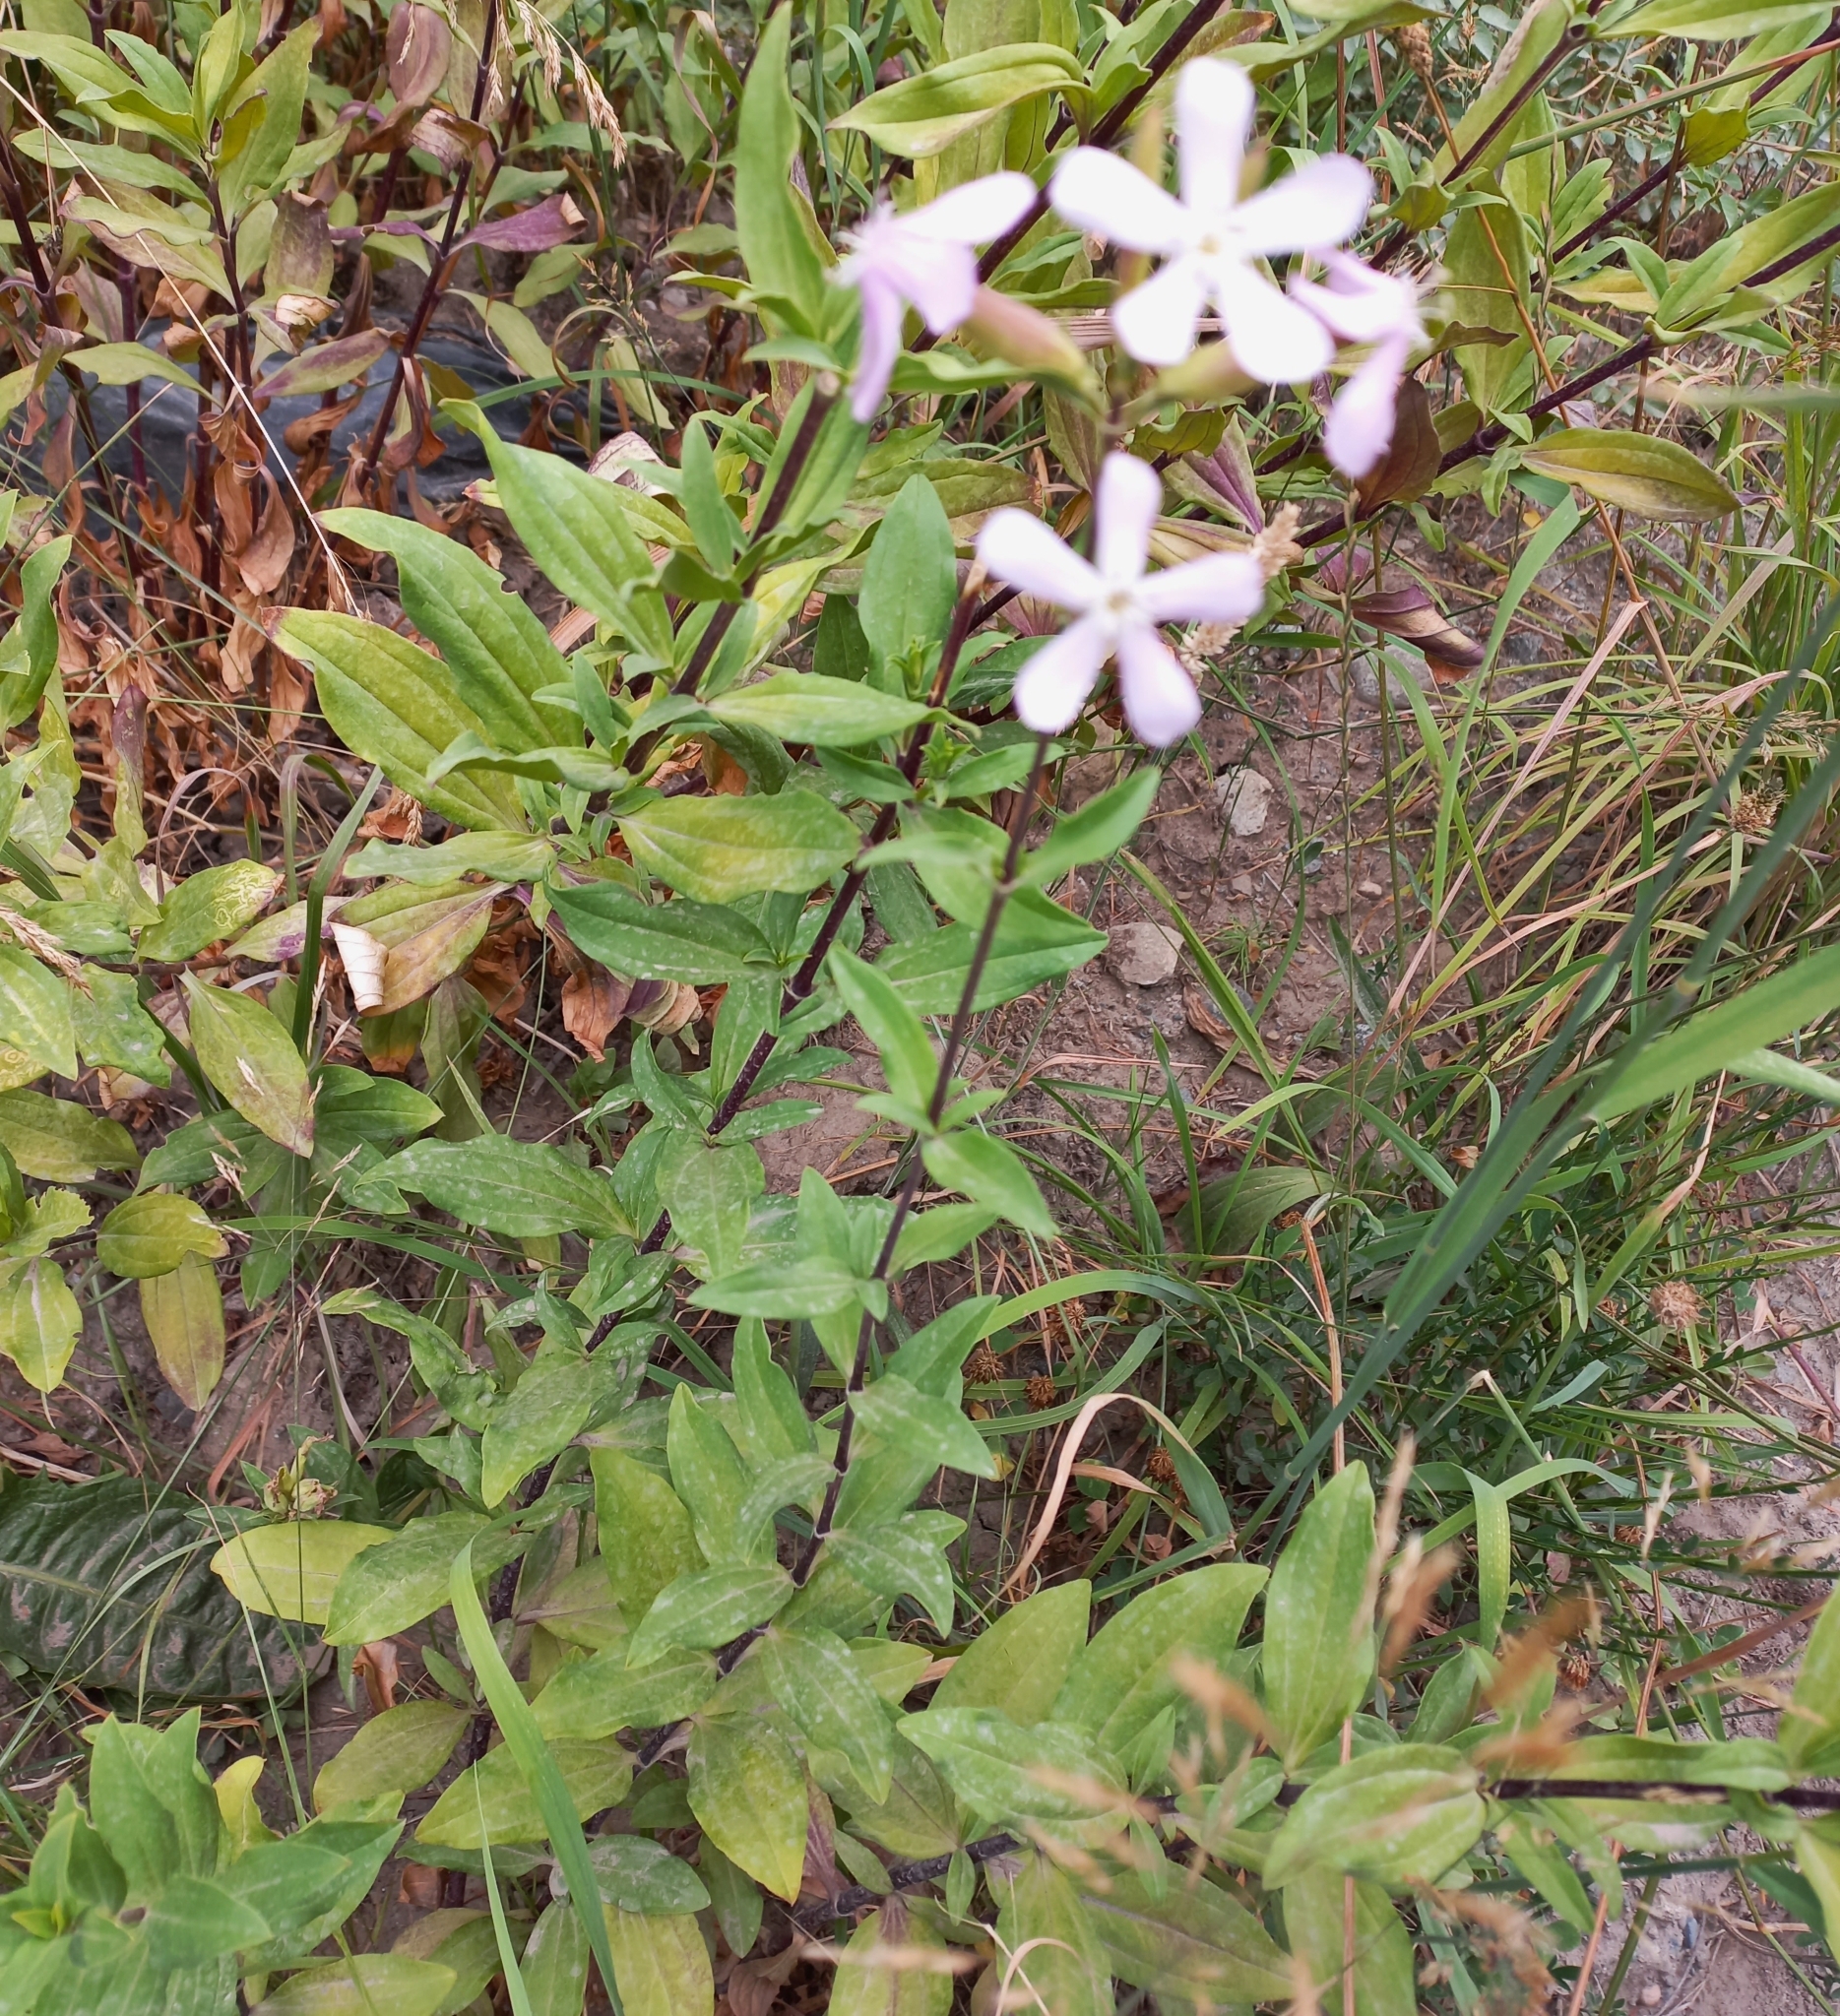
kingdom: Plantae
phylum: Tracheophyta
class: Magnoliopsida
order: Caryophyllales
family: Caryophyllaceae
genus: Saponaria
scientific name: Saponaria officinalis
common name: Soapwort
